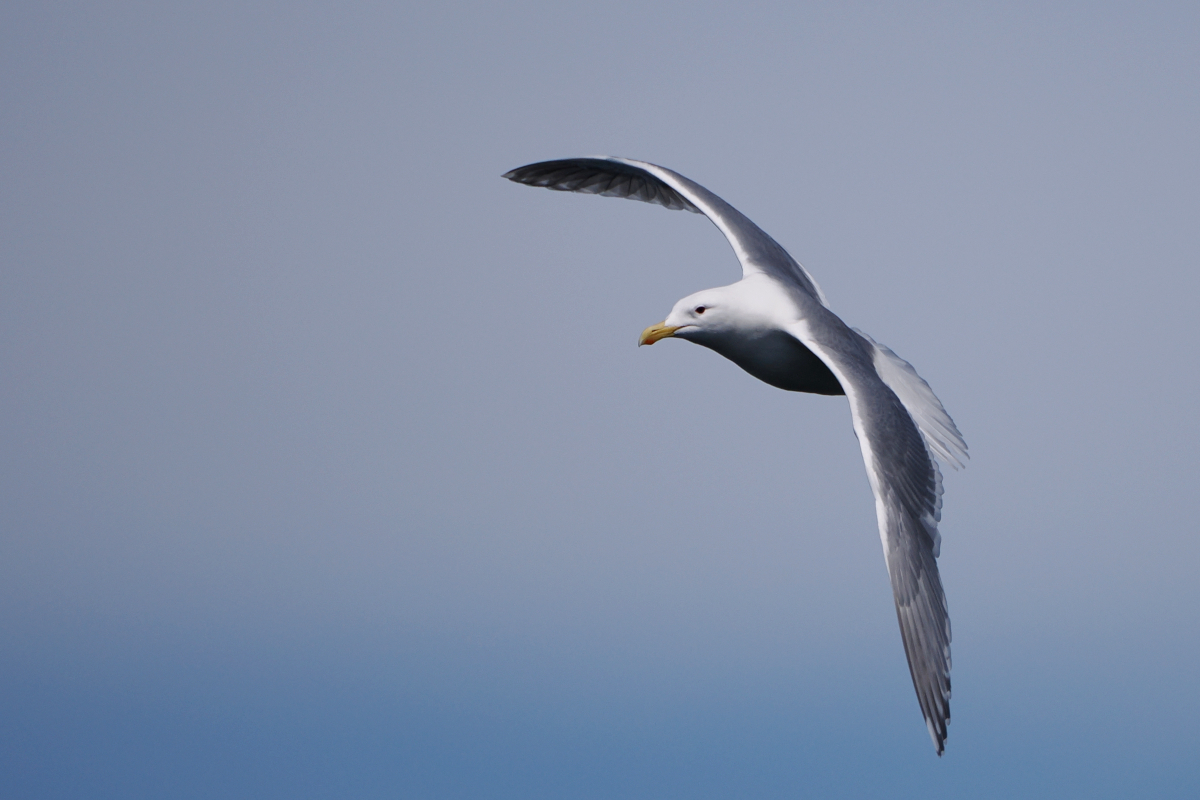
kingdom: Animalia
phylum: Chordata
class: Aves
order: Charadriiformes
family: Laridae
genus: Larus
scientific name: Larus glaucescens
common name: Glaucous-winged gull
